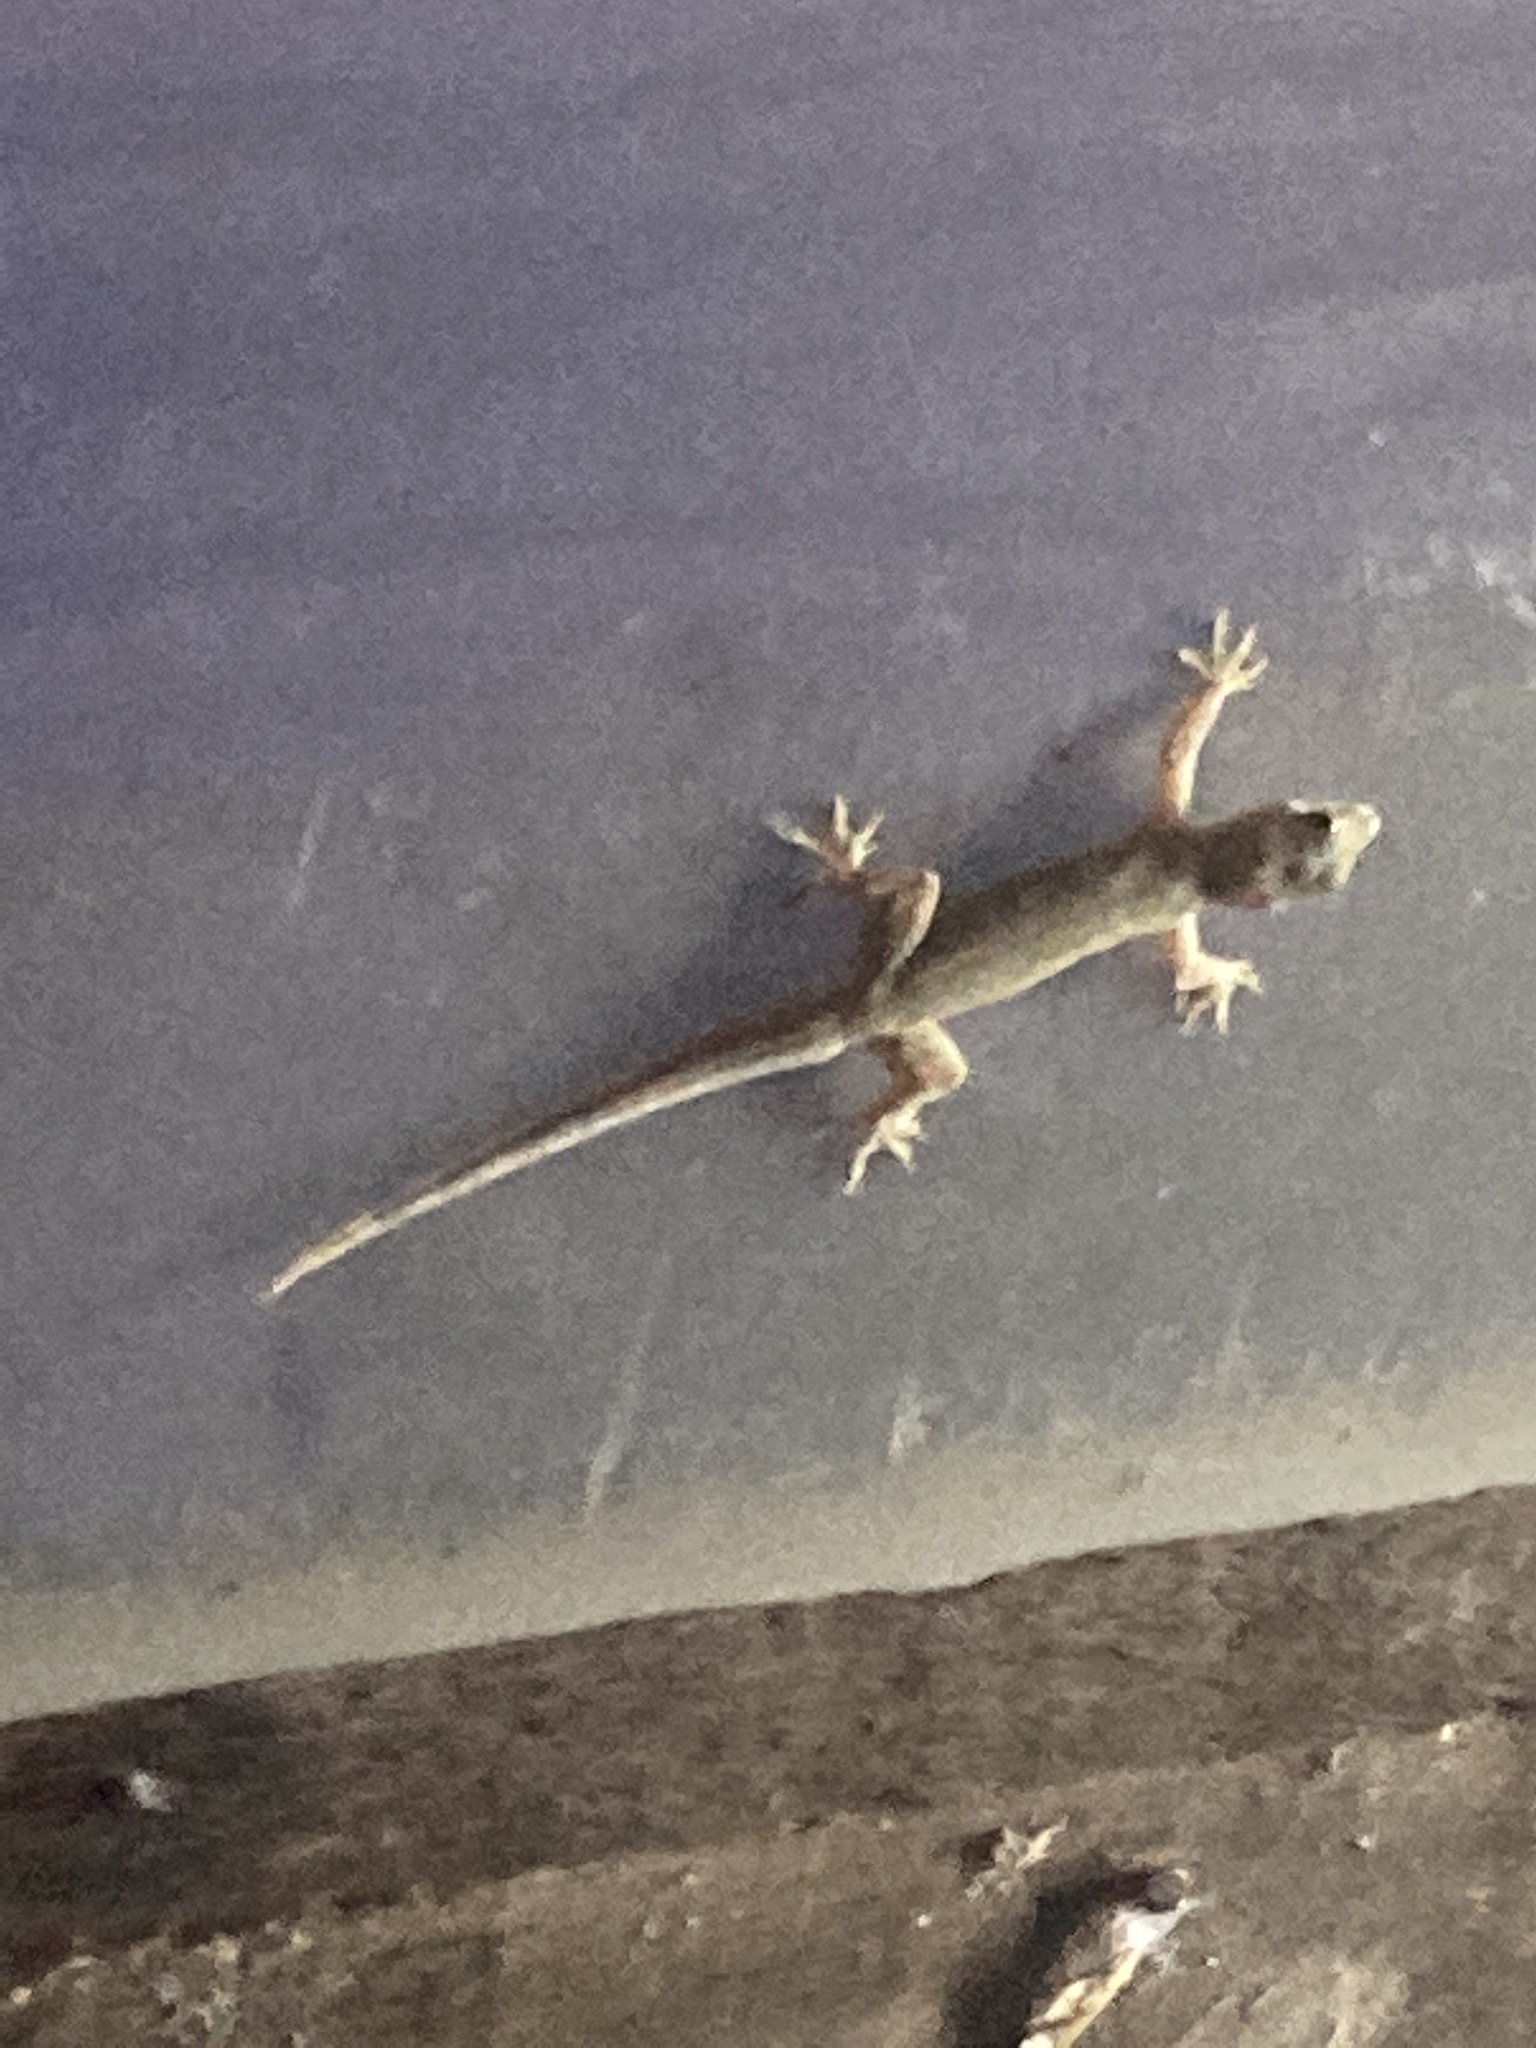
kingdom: Animalia
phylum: Chordata
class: Squamata
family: Gekkonidae
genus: Hemidactylus
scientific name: Hemidactylus platyurus
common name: Flat-tailed house gecko
